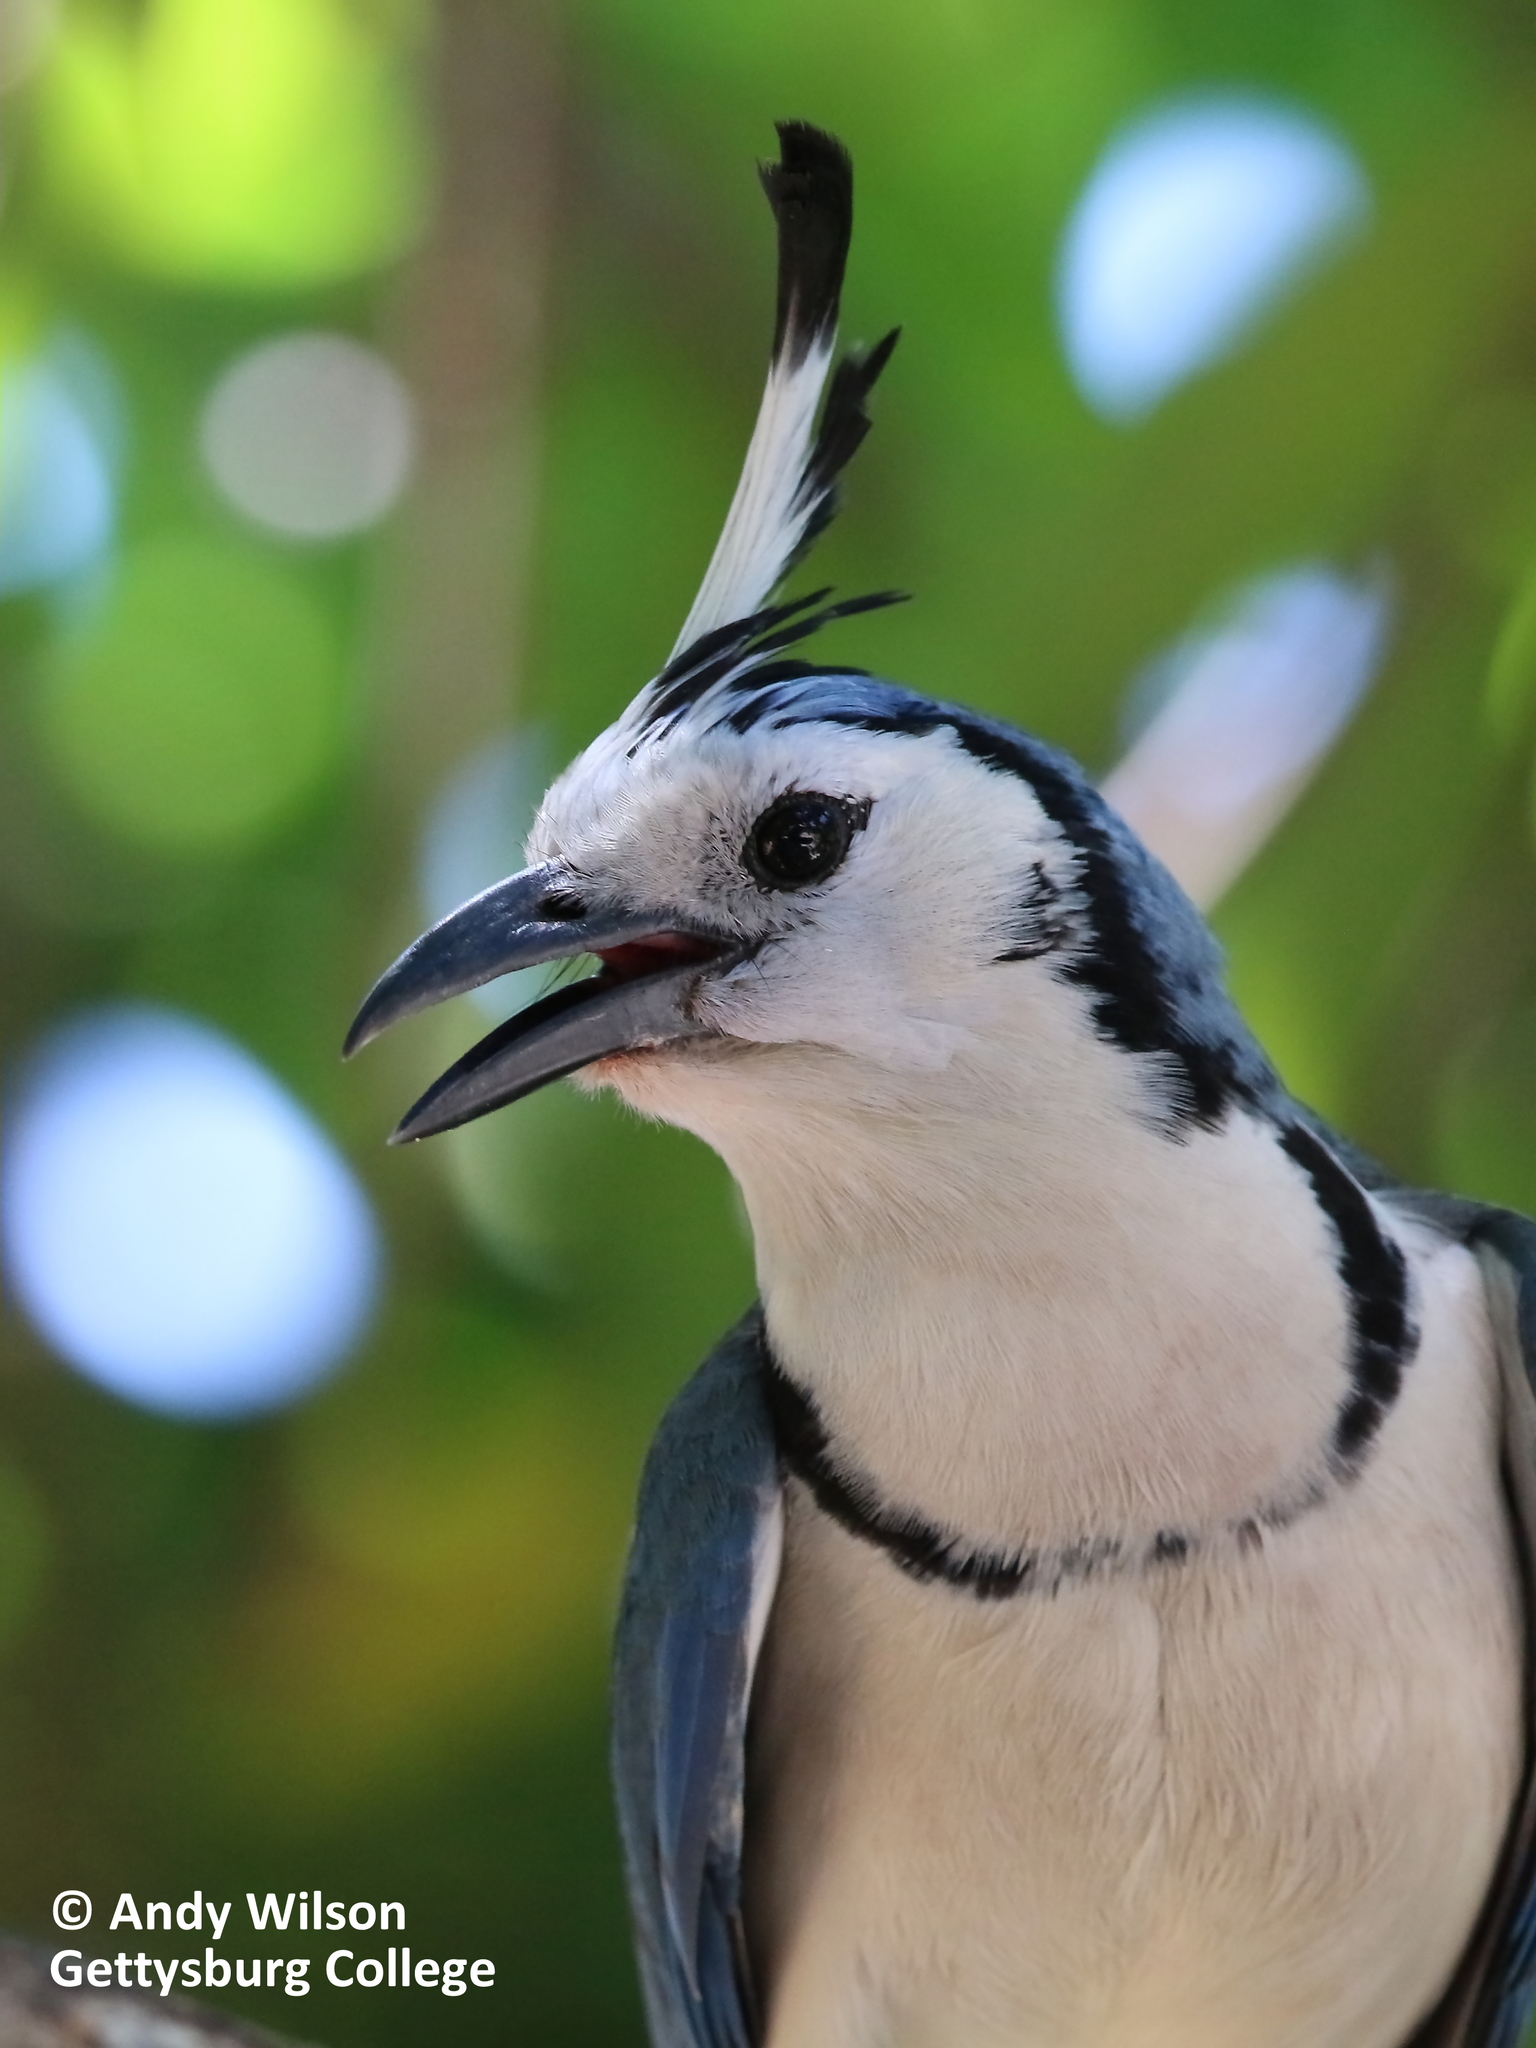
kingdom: Animalia
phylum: Chordata
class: Aves
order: Passeriformes
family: Corvidae
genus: Calocitta
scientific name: Calocitta formosa
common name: White-throated magpie-jay
